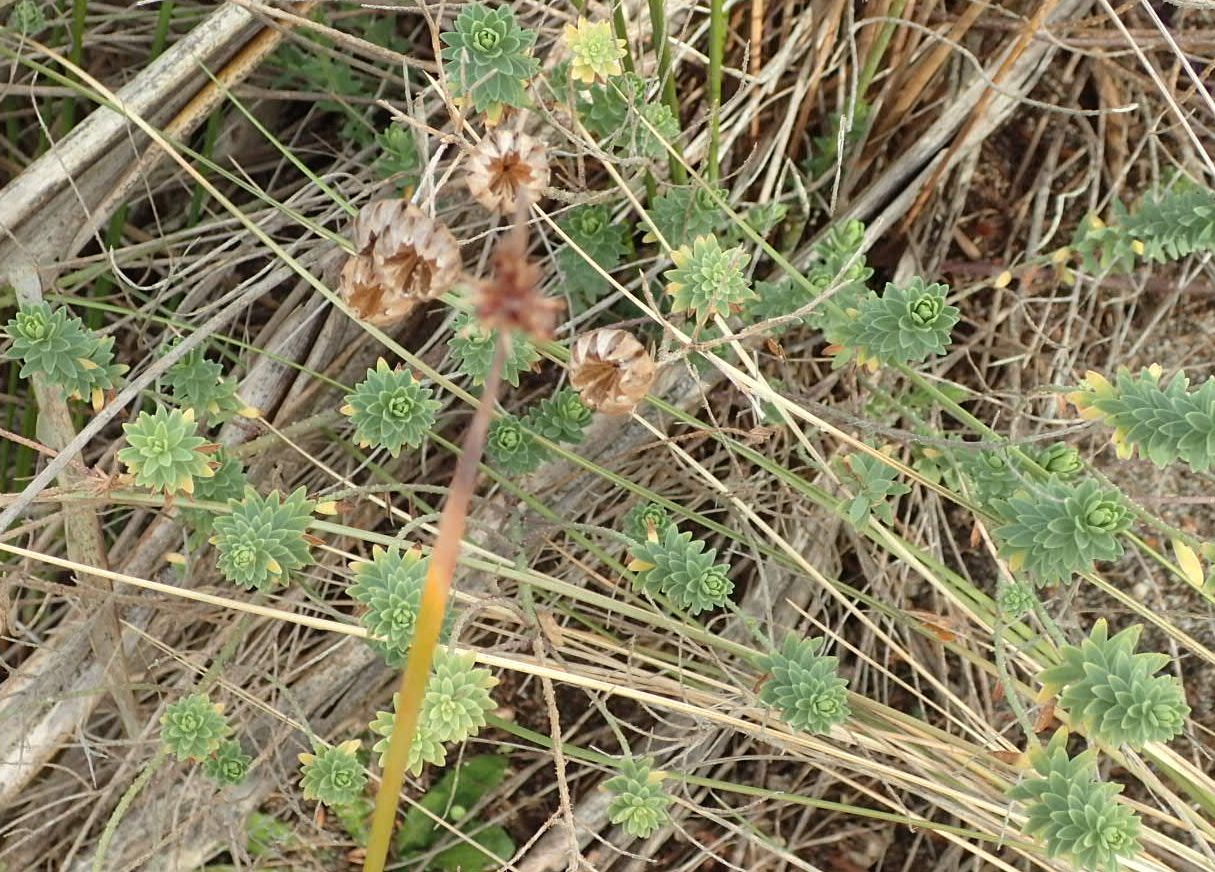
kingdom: Plantae
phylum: Tracheophyta
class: Magnoliopsida
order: Malpighiales
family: Linaceae
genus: Linum
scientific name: Linum monogynum
